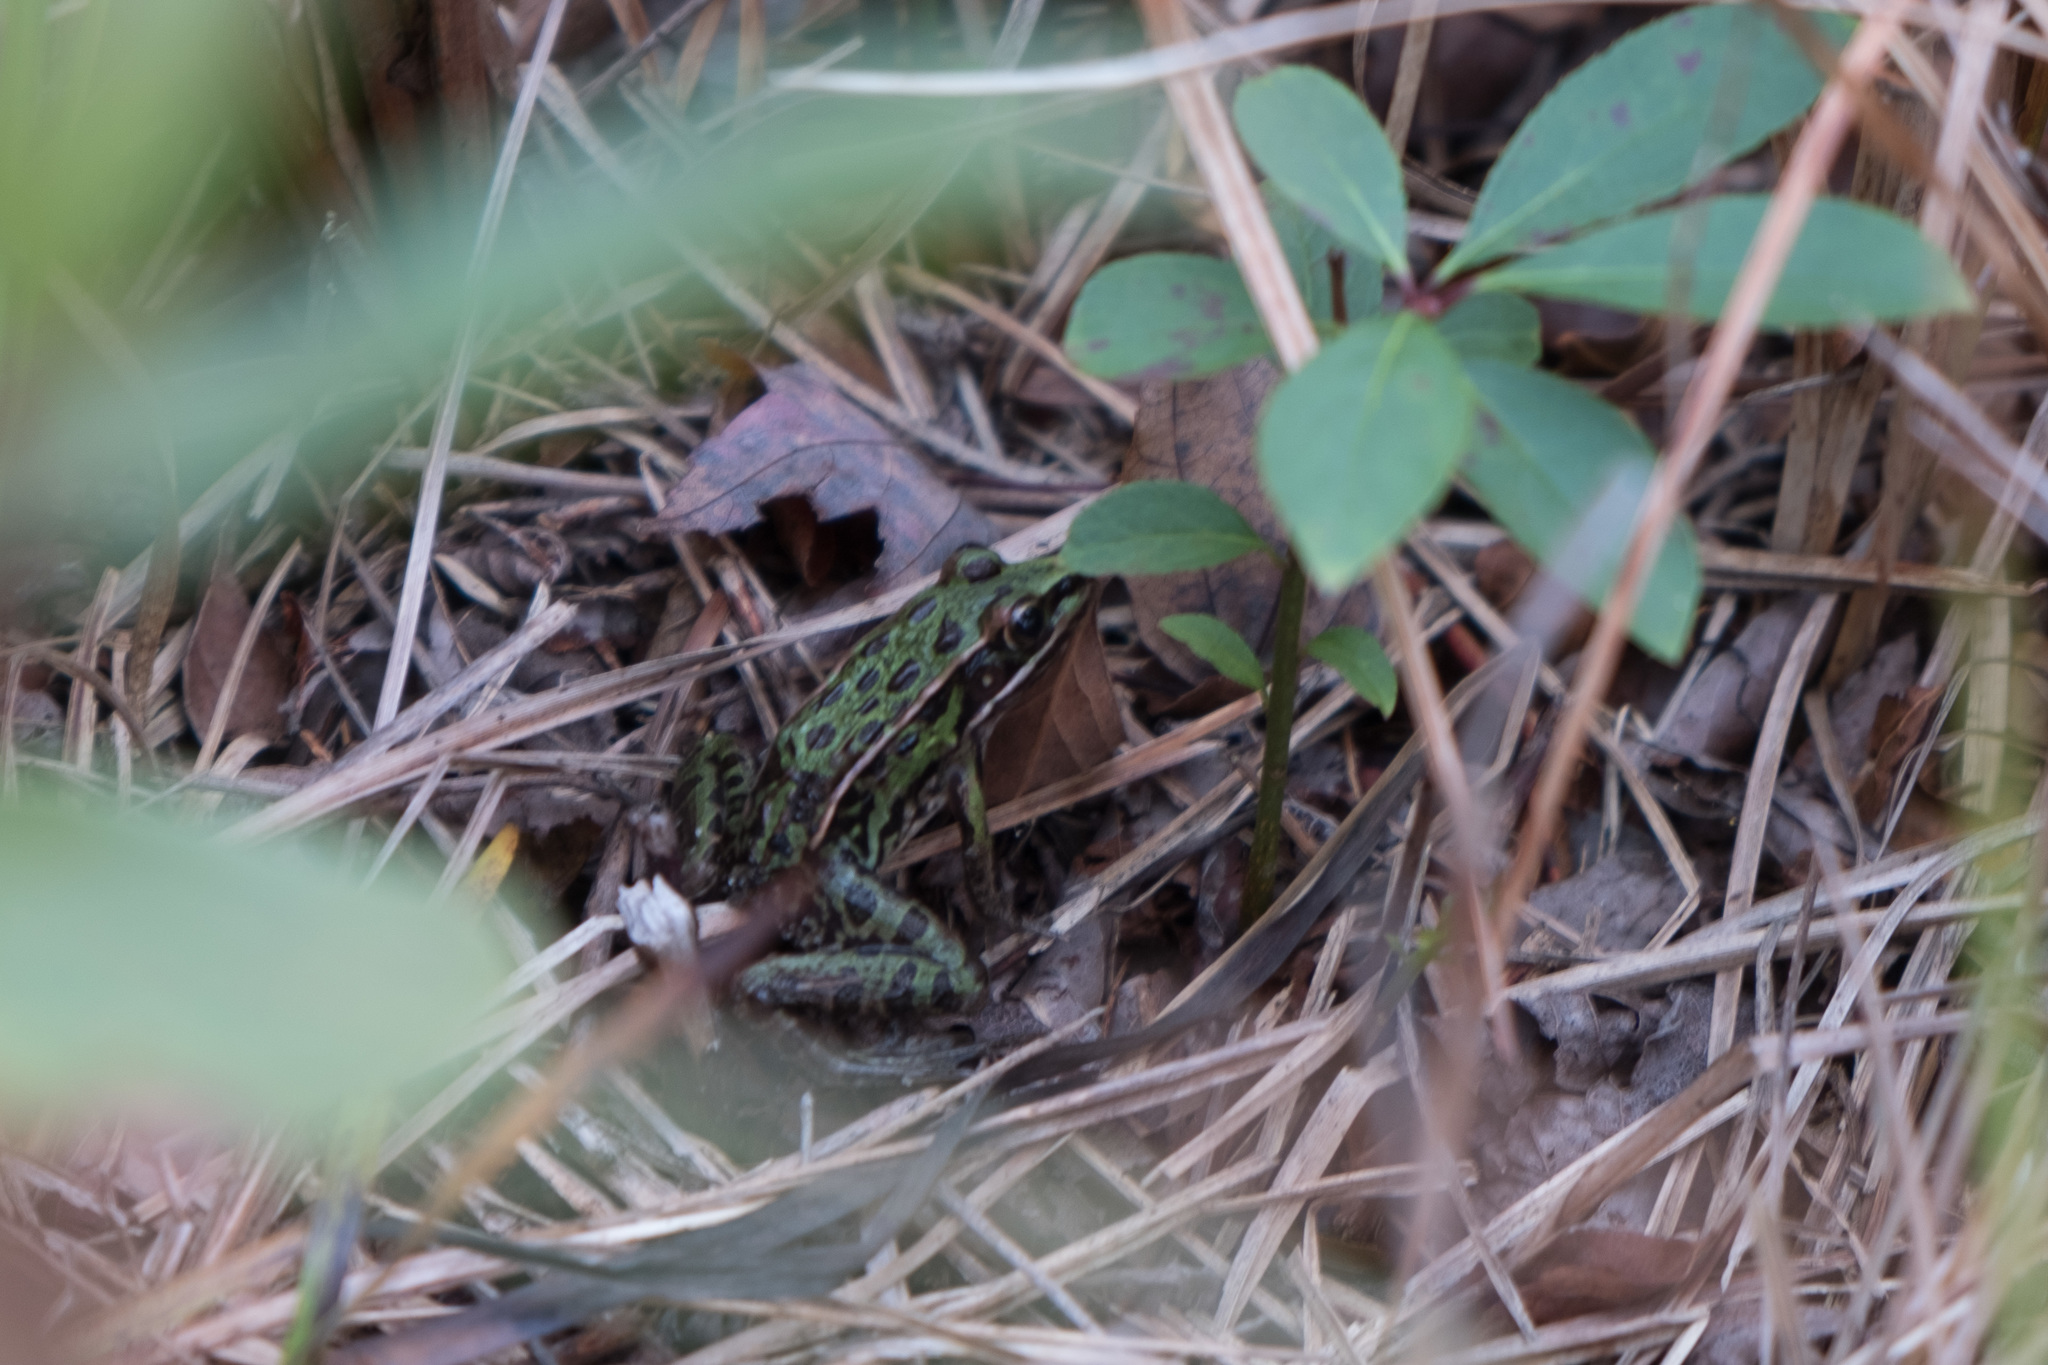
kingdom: Animalia
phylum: Chordata
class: Amphibia
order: Anura
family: Ranidae
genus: Lithobates
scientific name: Lithobates sphenocephalus
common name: Southern leopard frog
